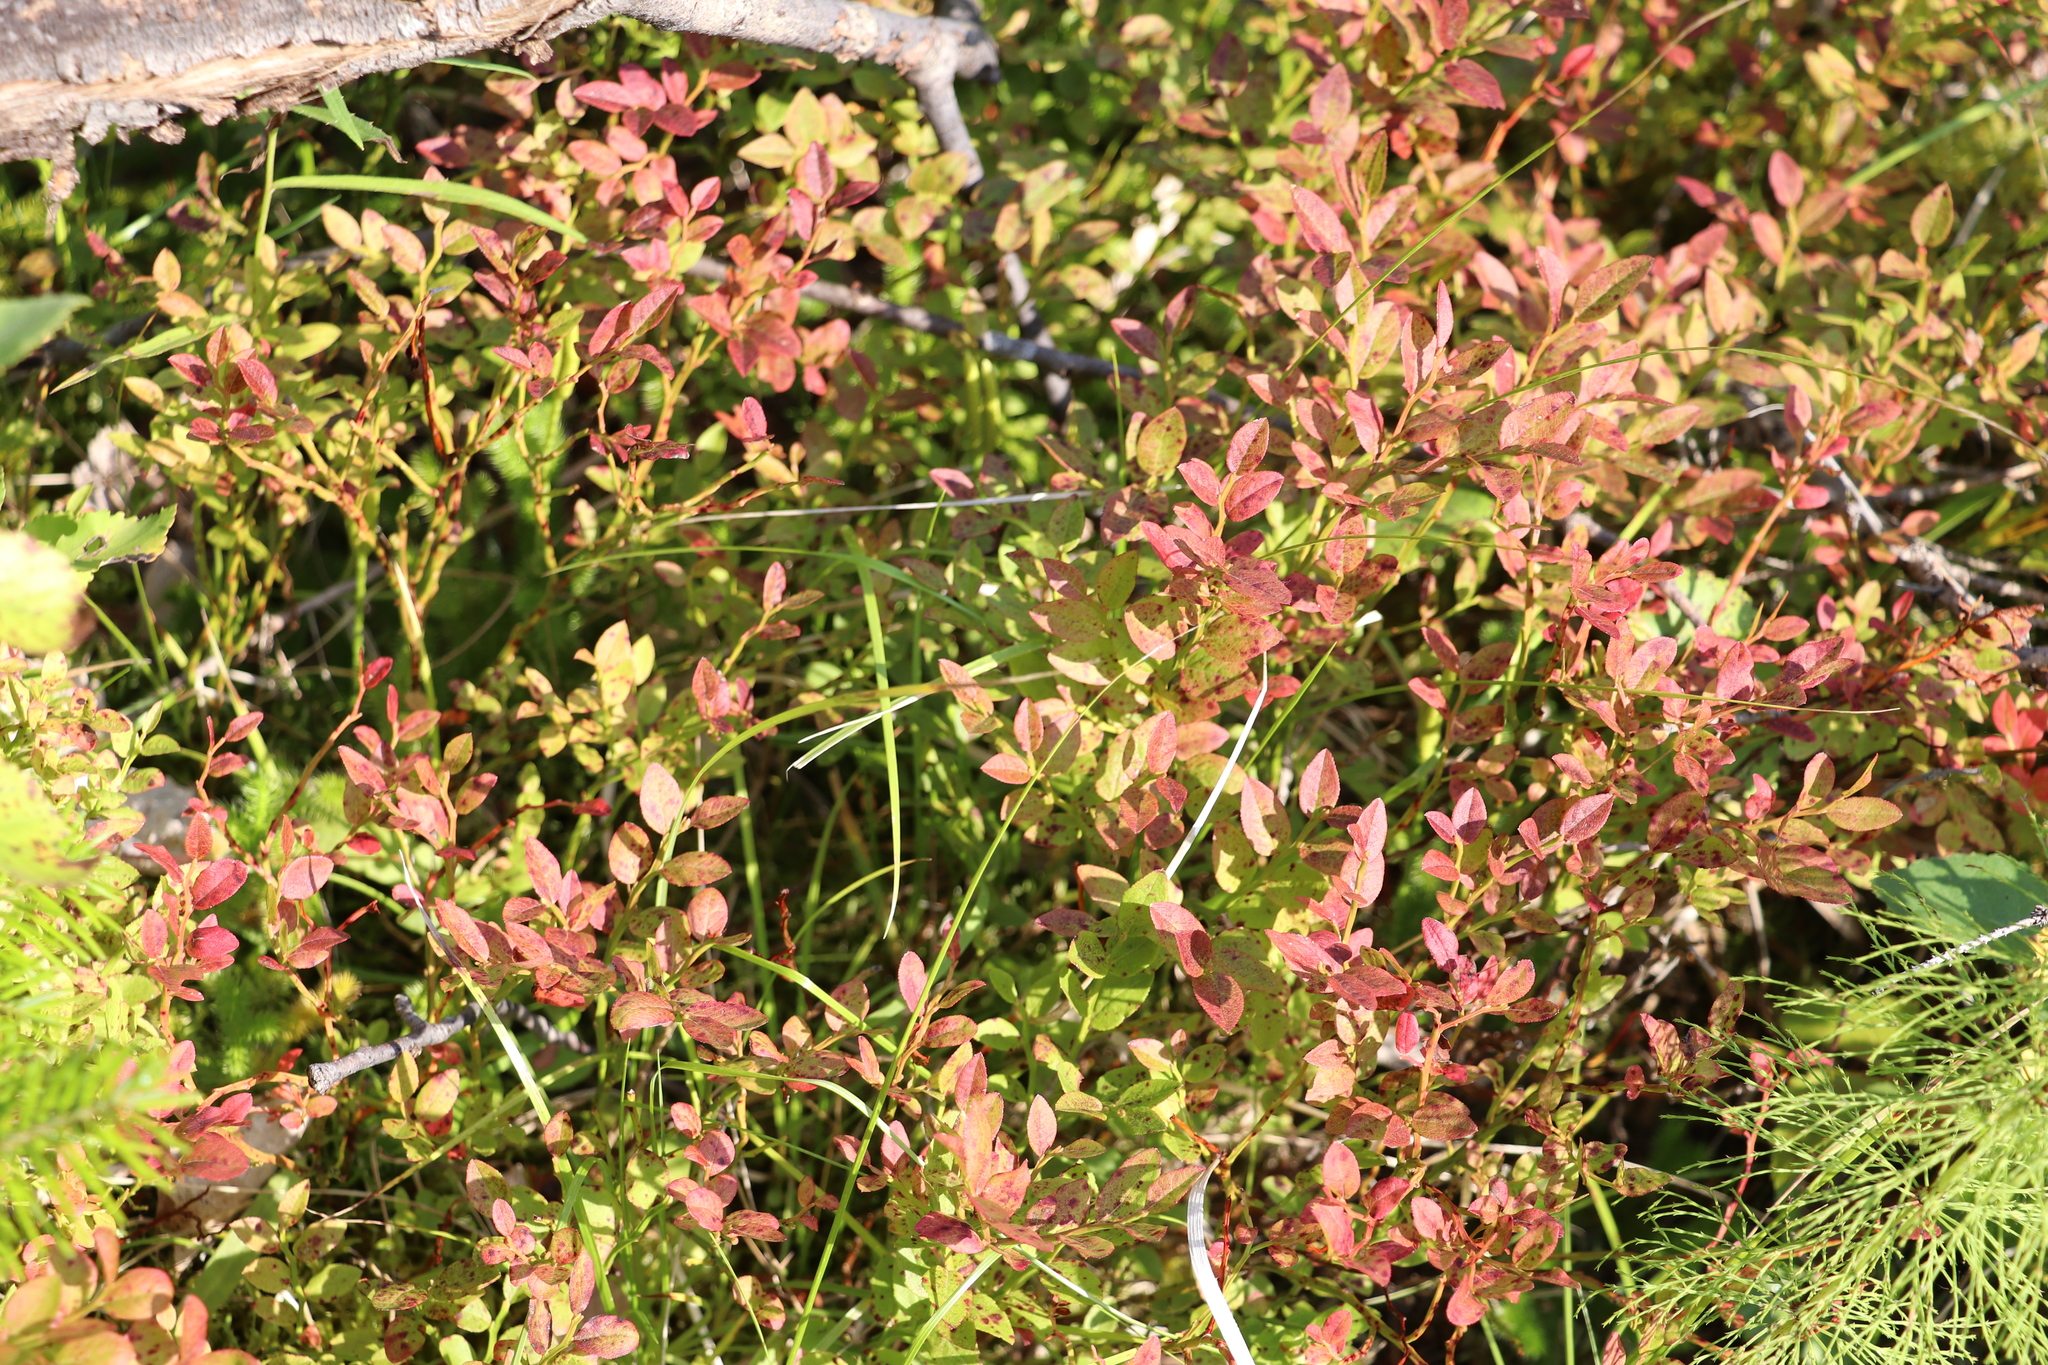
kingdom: Plantae
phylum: Tracheophyta
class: Magnoliopsida
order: Ericales
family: Ericaceae
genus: Vaccinium
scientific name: Vaccinium myrtillus
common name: Bilberry
